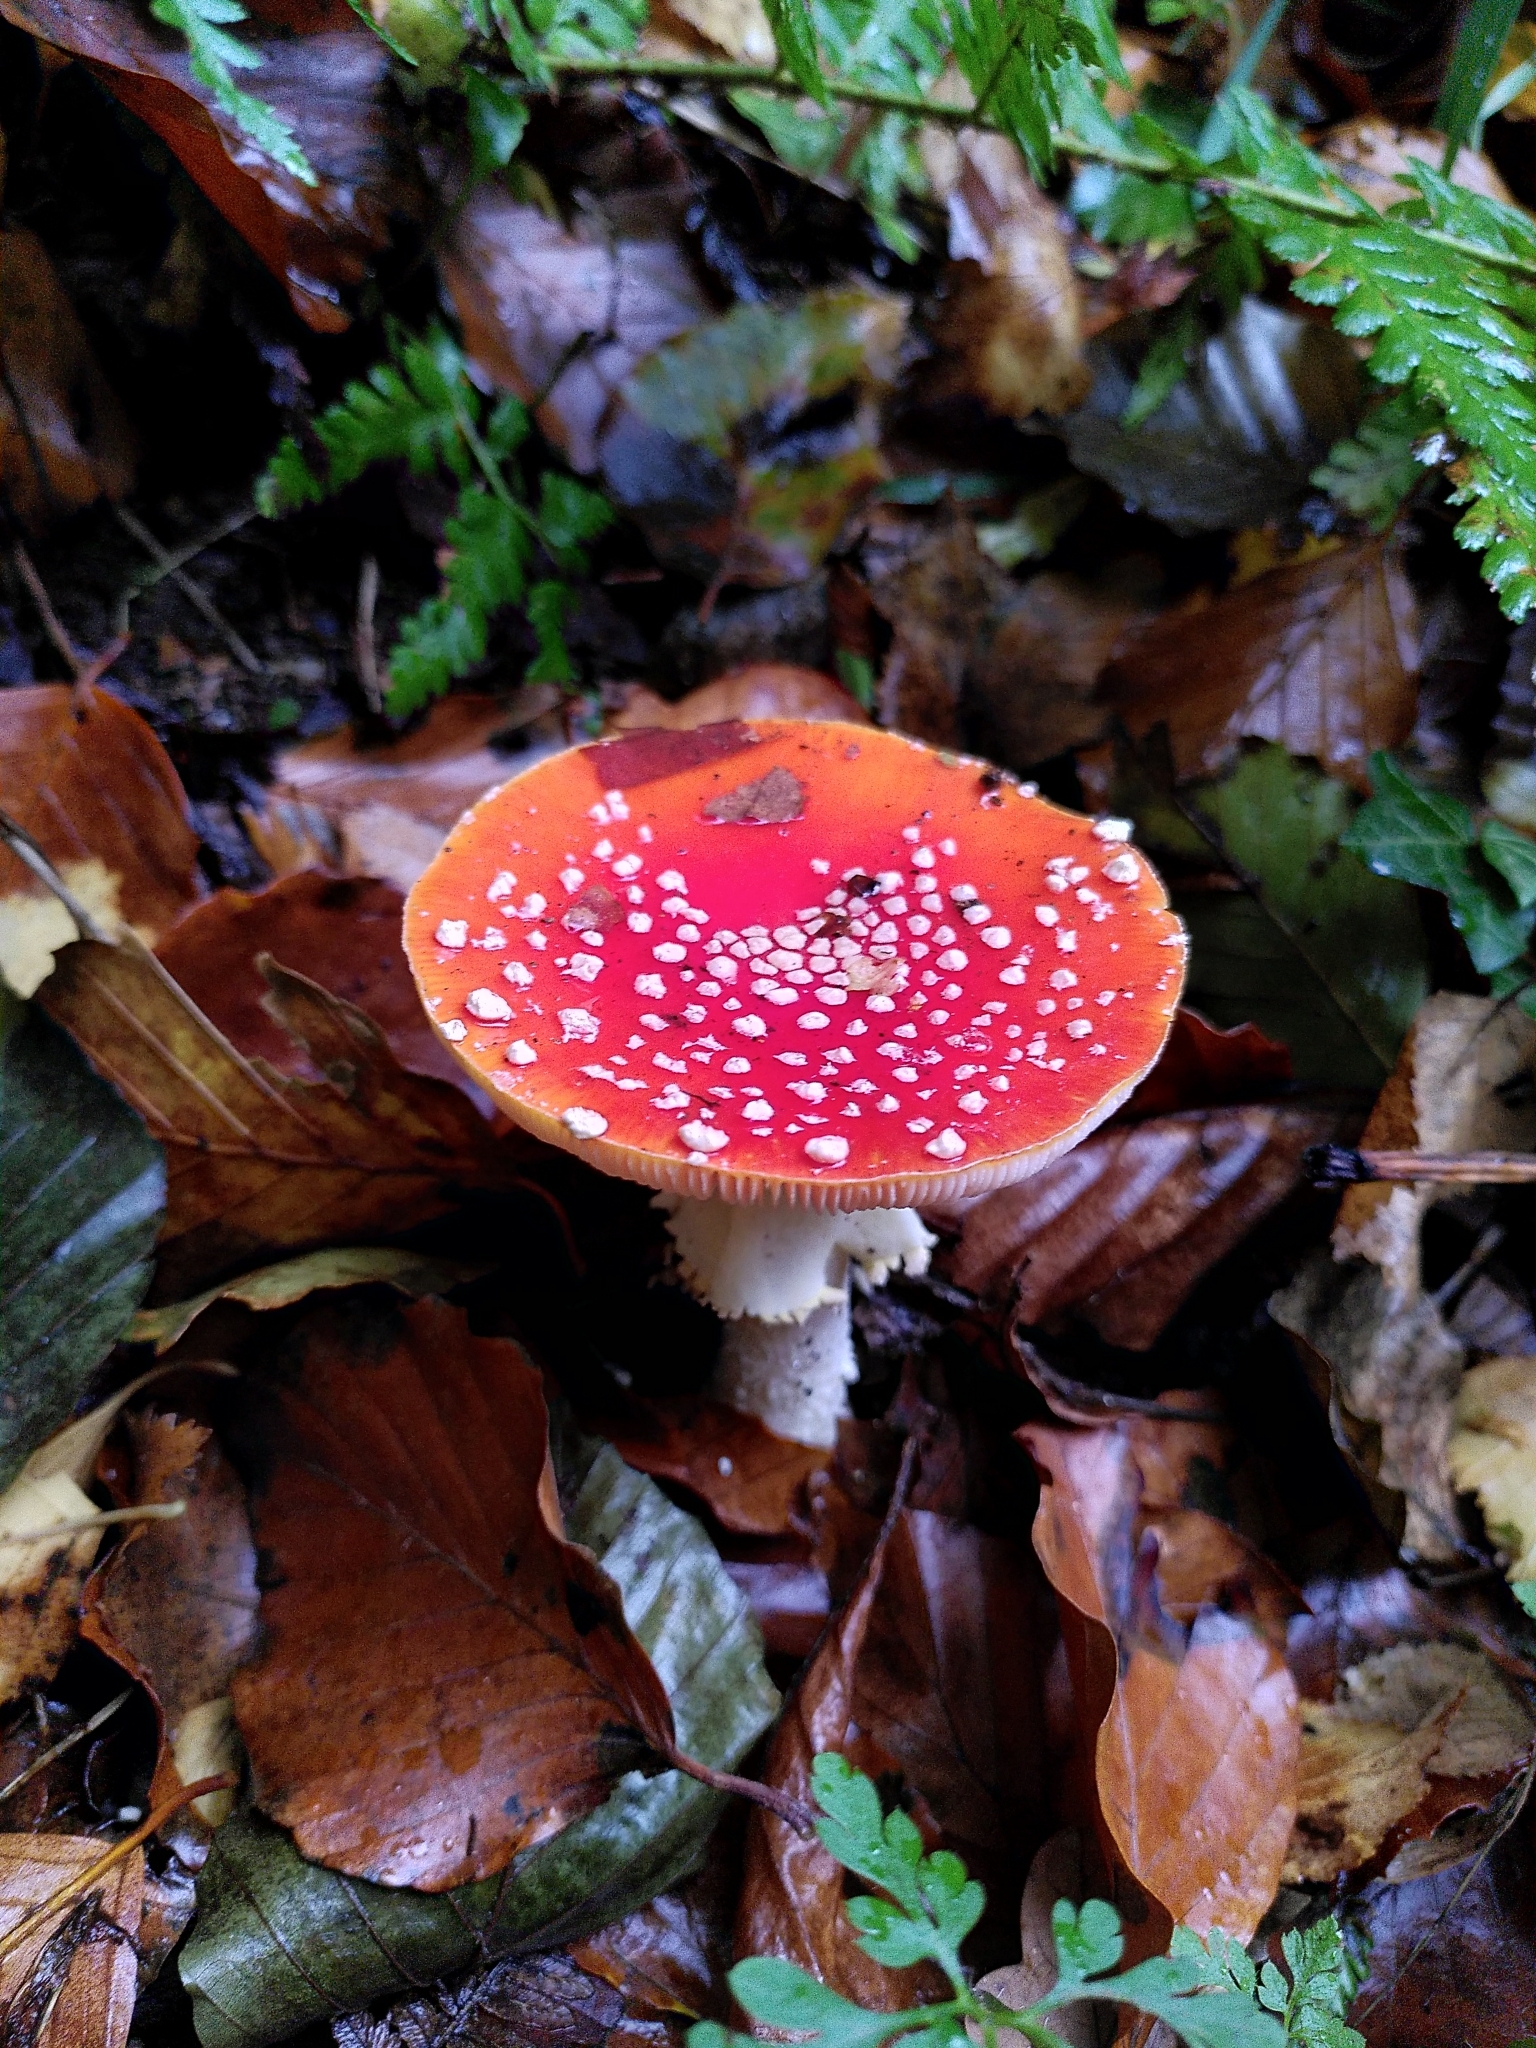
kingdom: Fungi
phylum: Basidiomycota
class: Agaricomycetes
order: Agaricales
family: Amanitaceae
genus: Amanita
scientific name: Amanita muscaria
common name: Fly agaric
